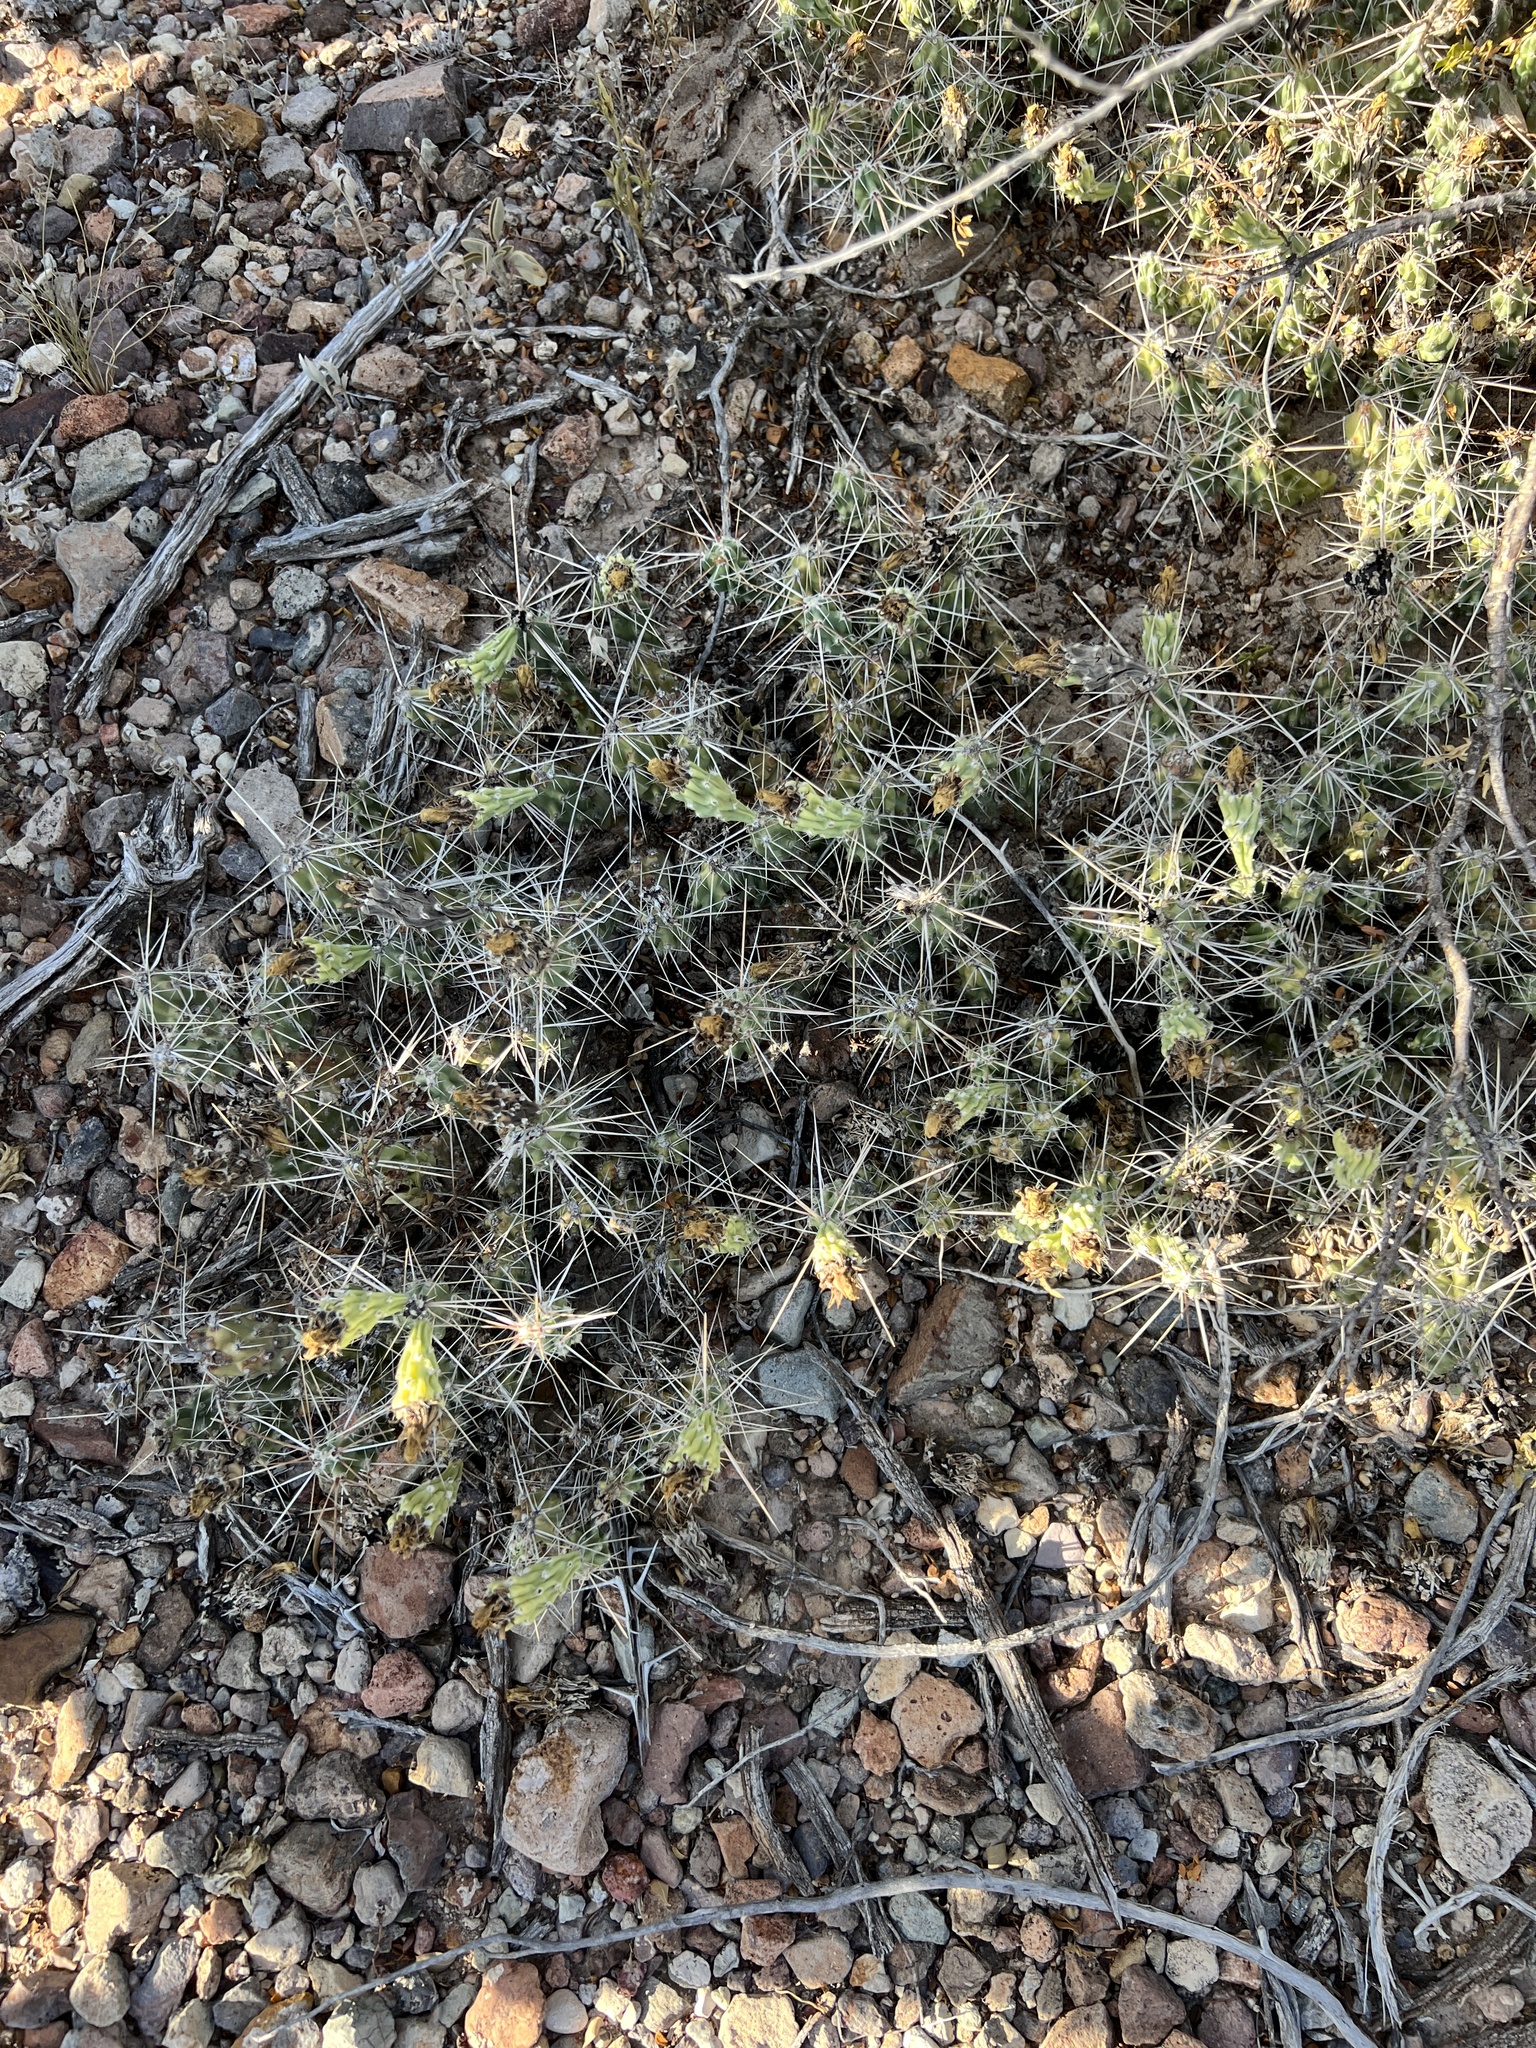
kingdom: Plantae
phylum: Tracheophyta
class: Magnoliopsida
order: Caryophyllales
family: Cactaceae
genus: Grusonia
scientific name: Grusonia aggeria
